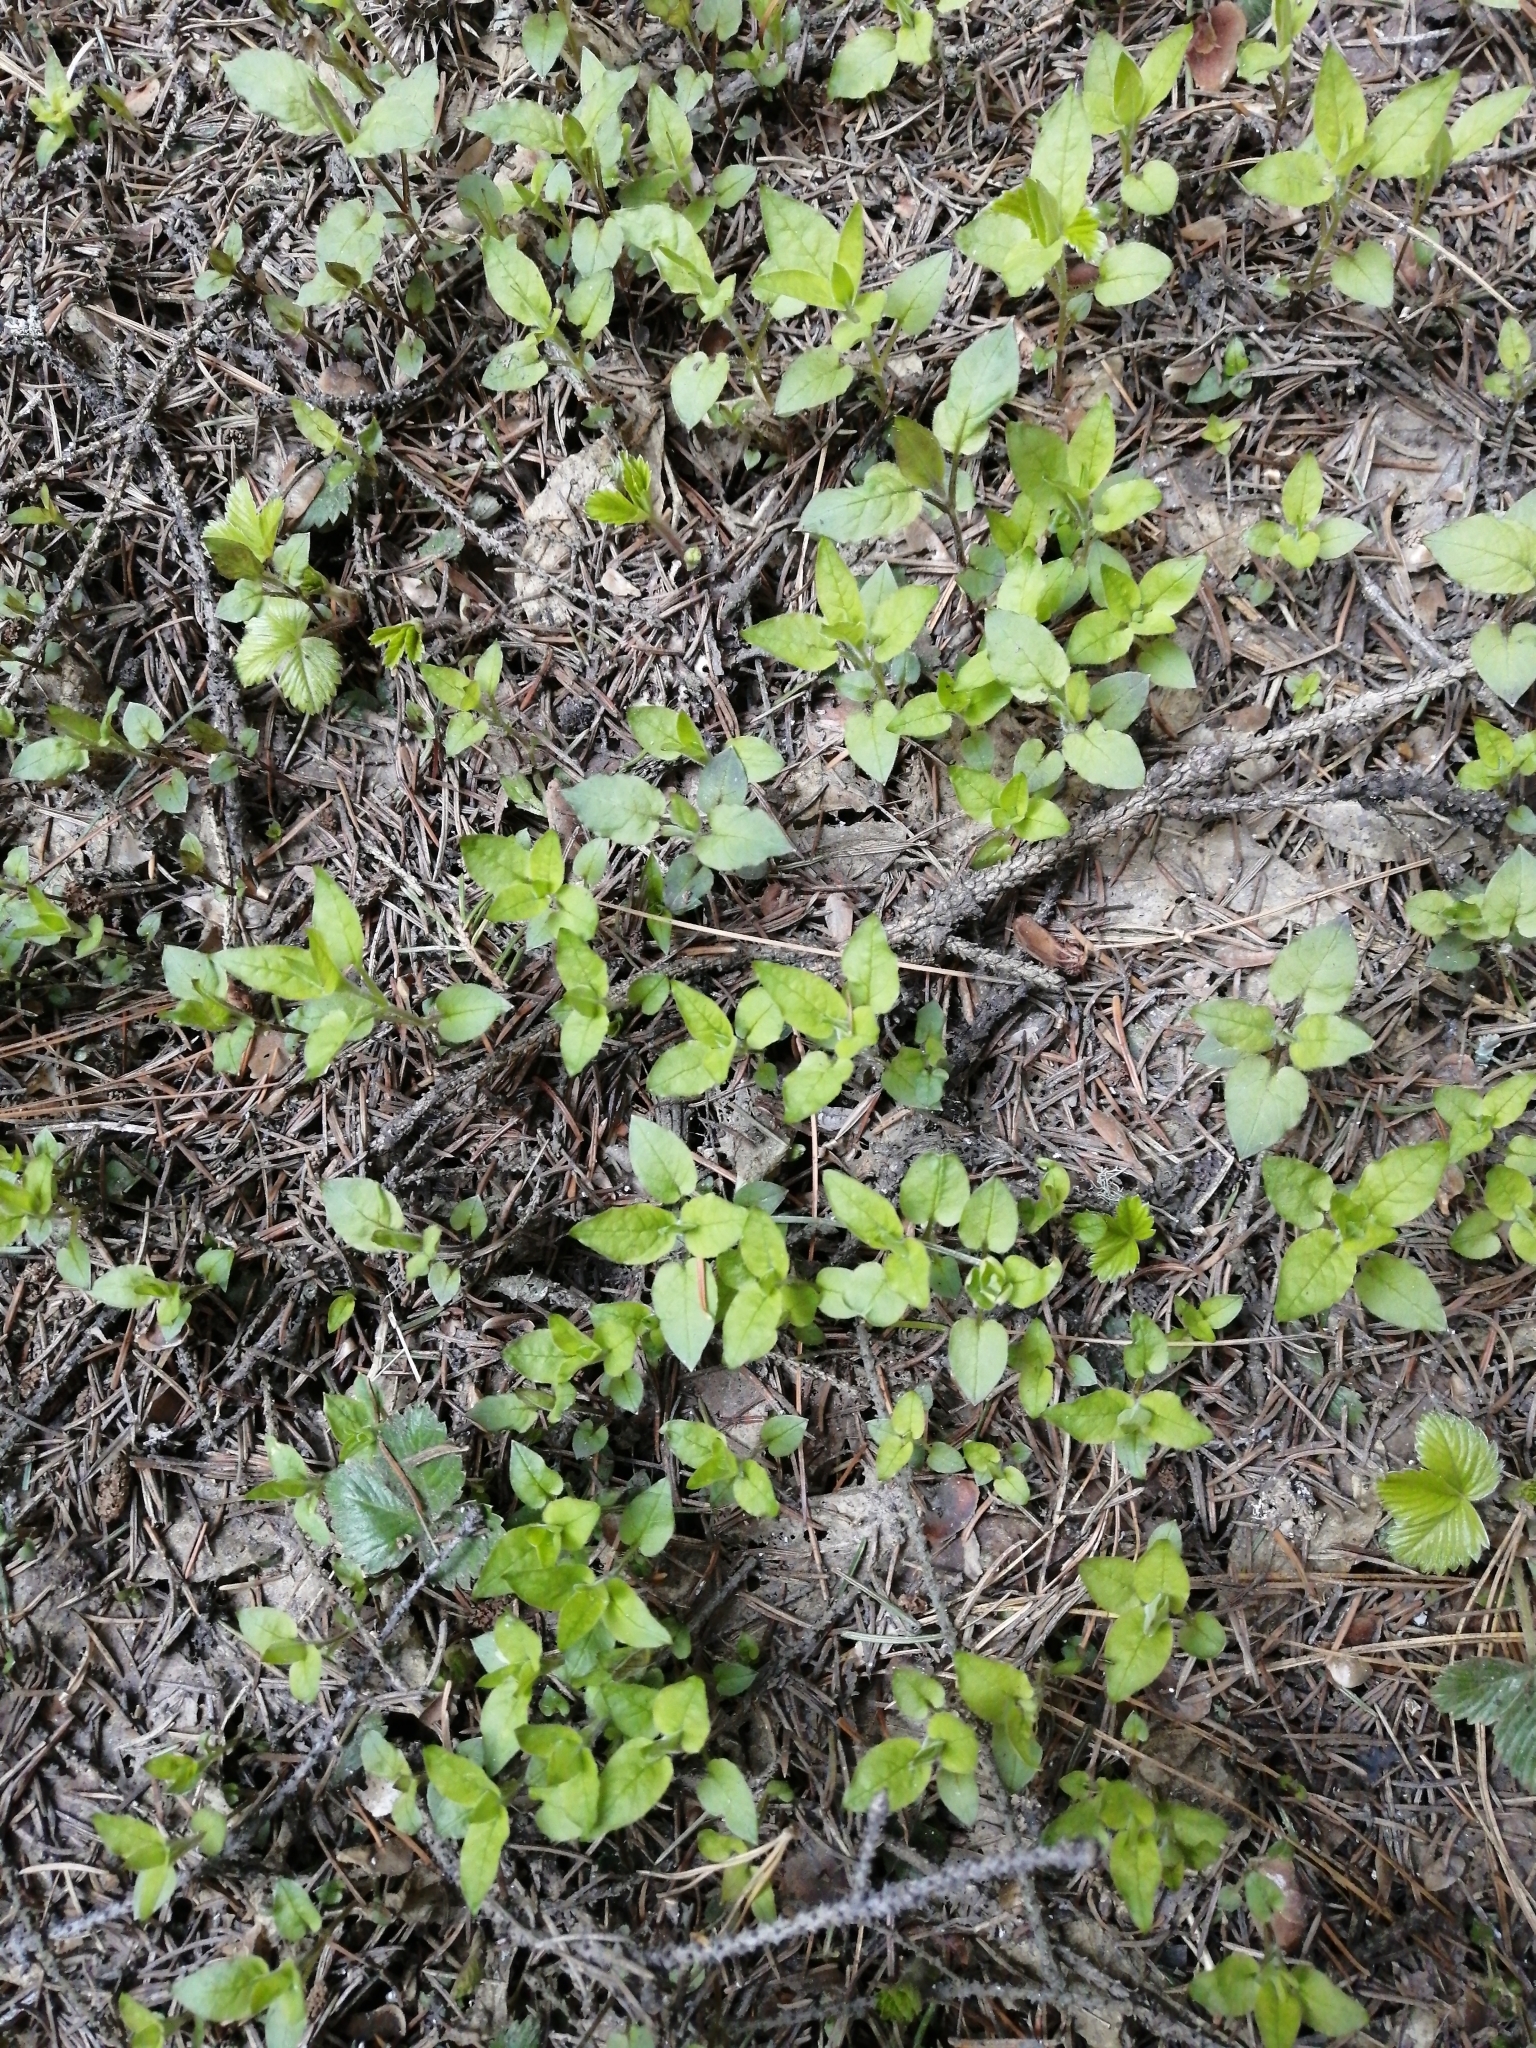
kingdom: Plantae
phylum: Tracheophyta
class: Magnoliopsida
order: Caryophyllales
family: Caryophyllaceae
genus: Stellaria
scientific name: Stellaria bungeana
